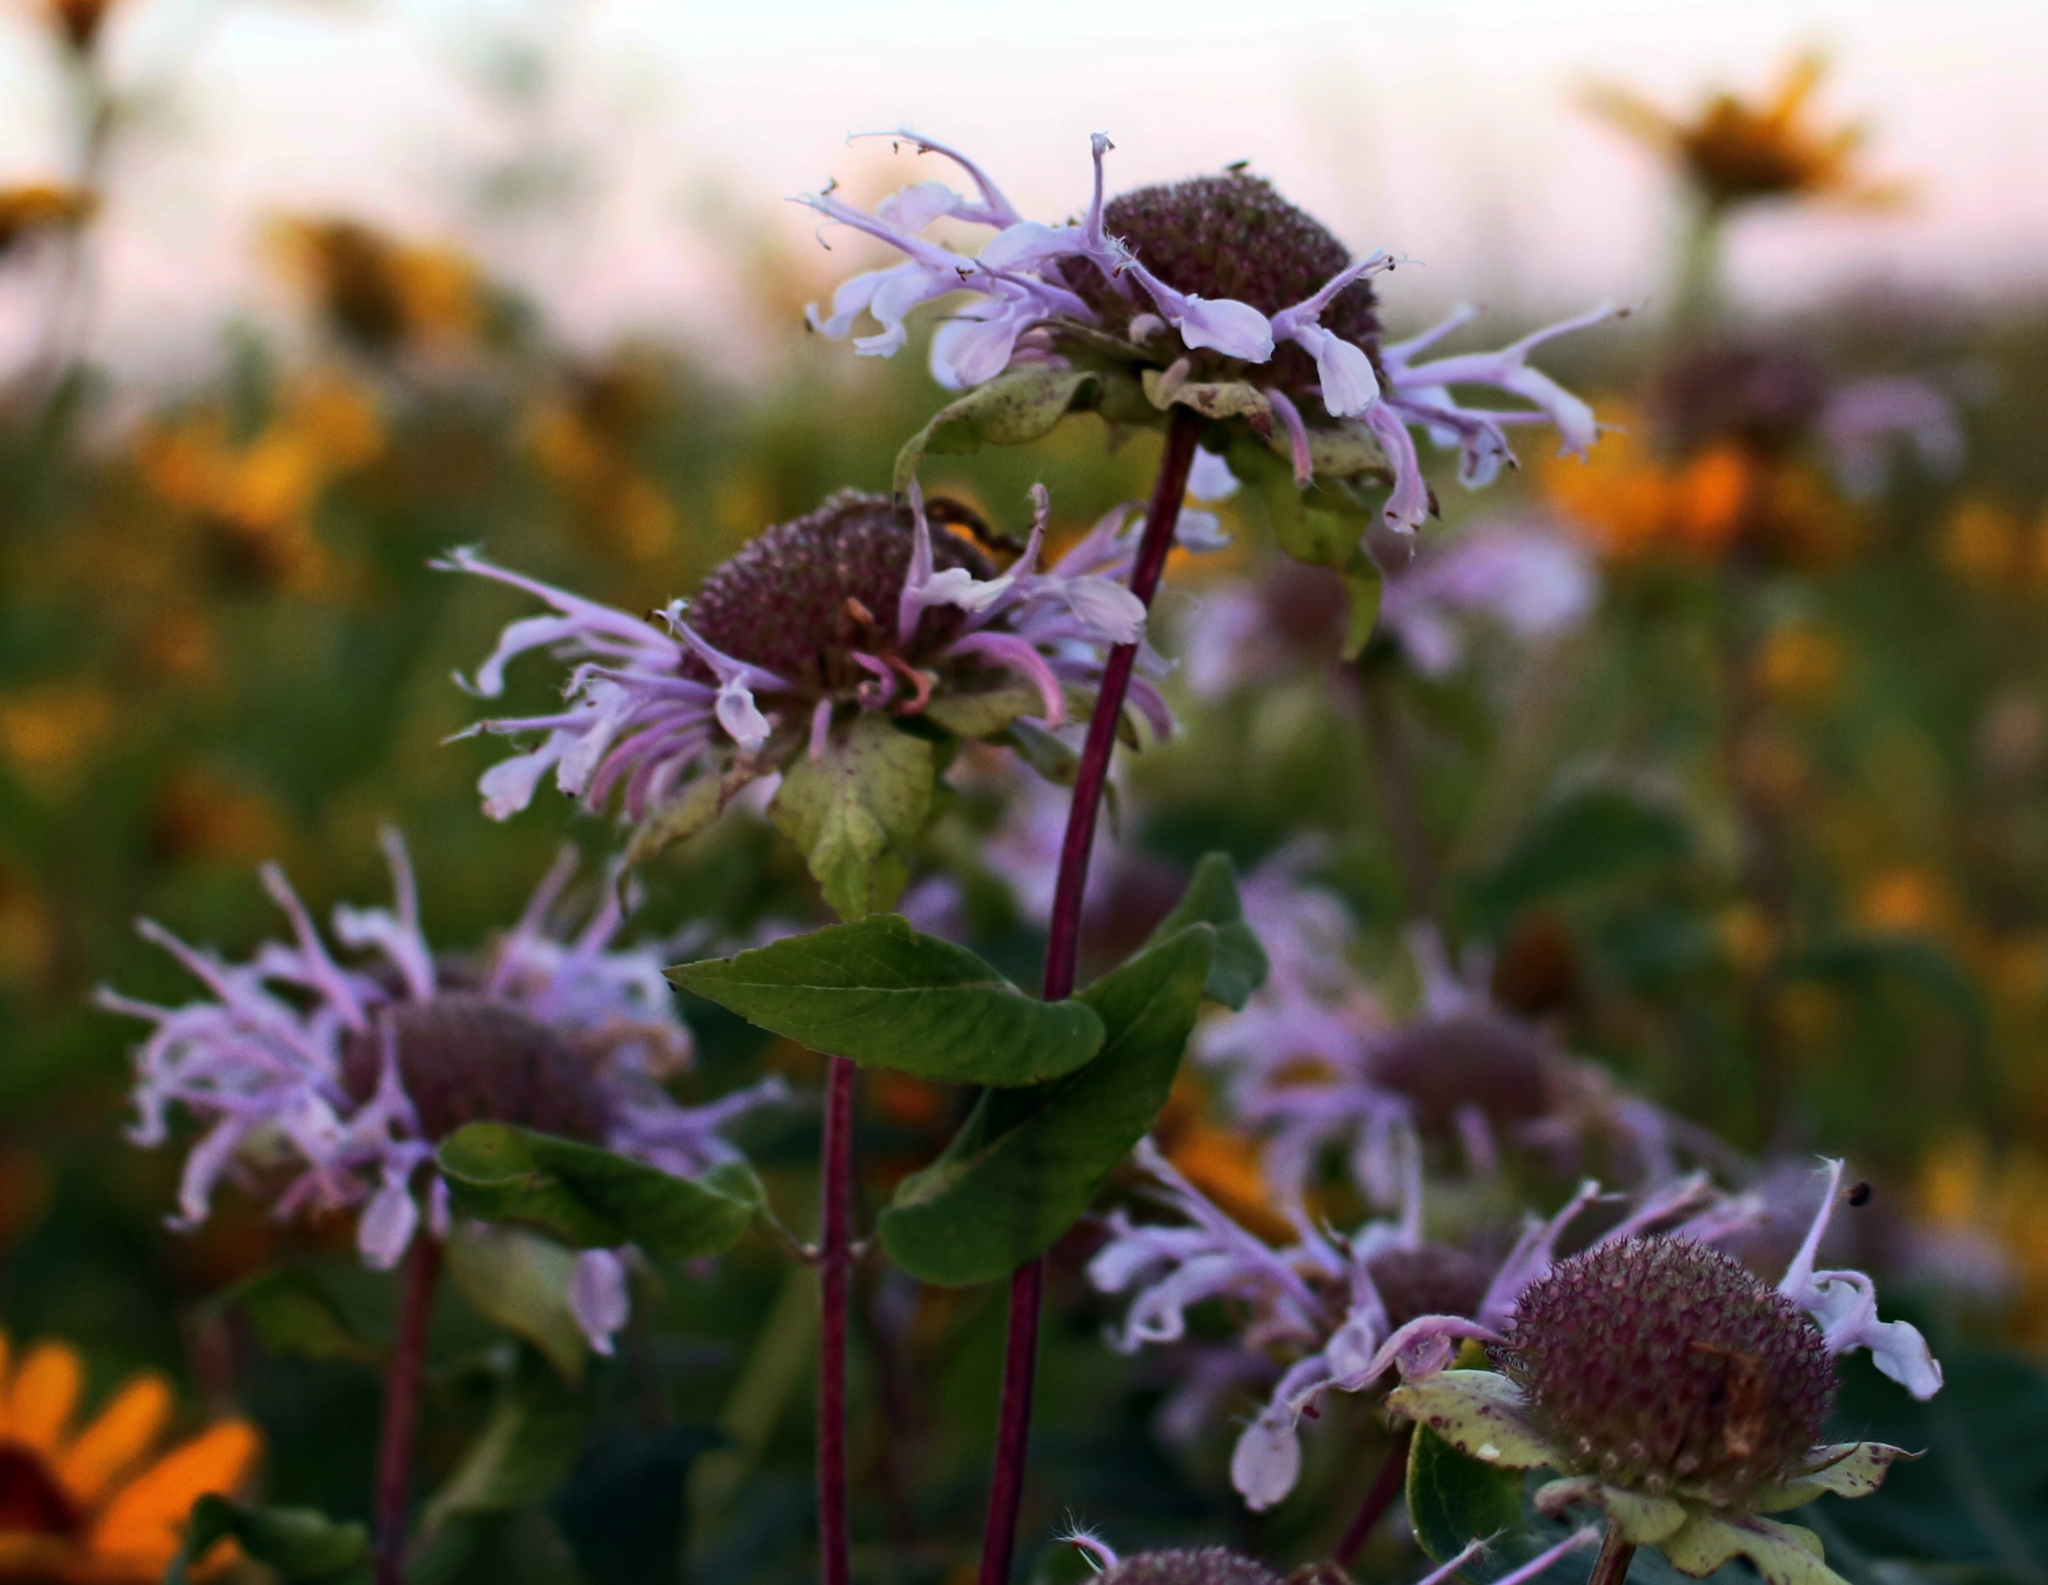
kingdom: Plantae
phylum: Tracheophyta
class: Magnoliopsida
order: Lamiales
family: Lamiaceae
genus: Monarda
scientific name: Monarda fistulosa
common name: Purple beebalm
